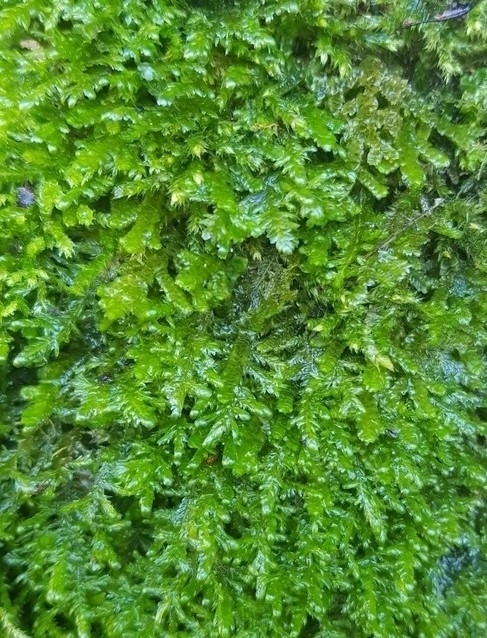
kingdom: Plantae
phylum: Bryophyta
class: Bryopsida
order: Hypnales
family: Neckeraceae
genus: Alleniella
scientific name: Alleniella complanata
